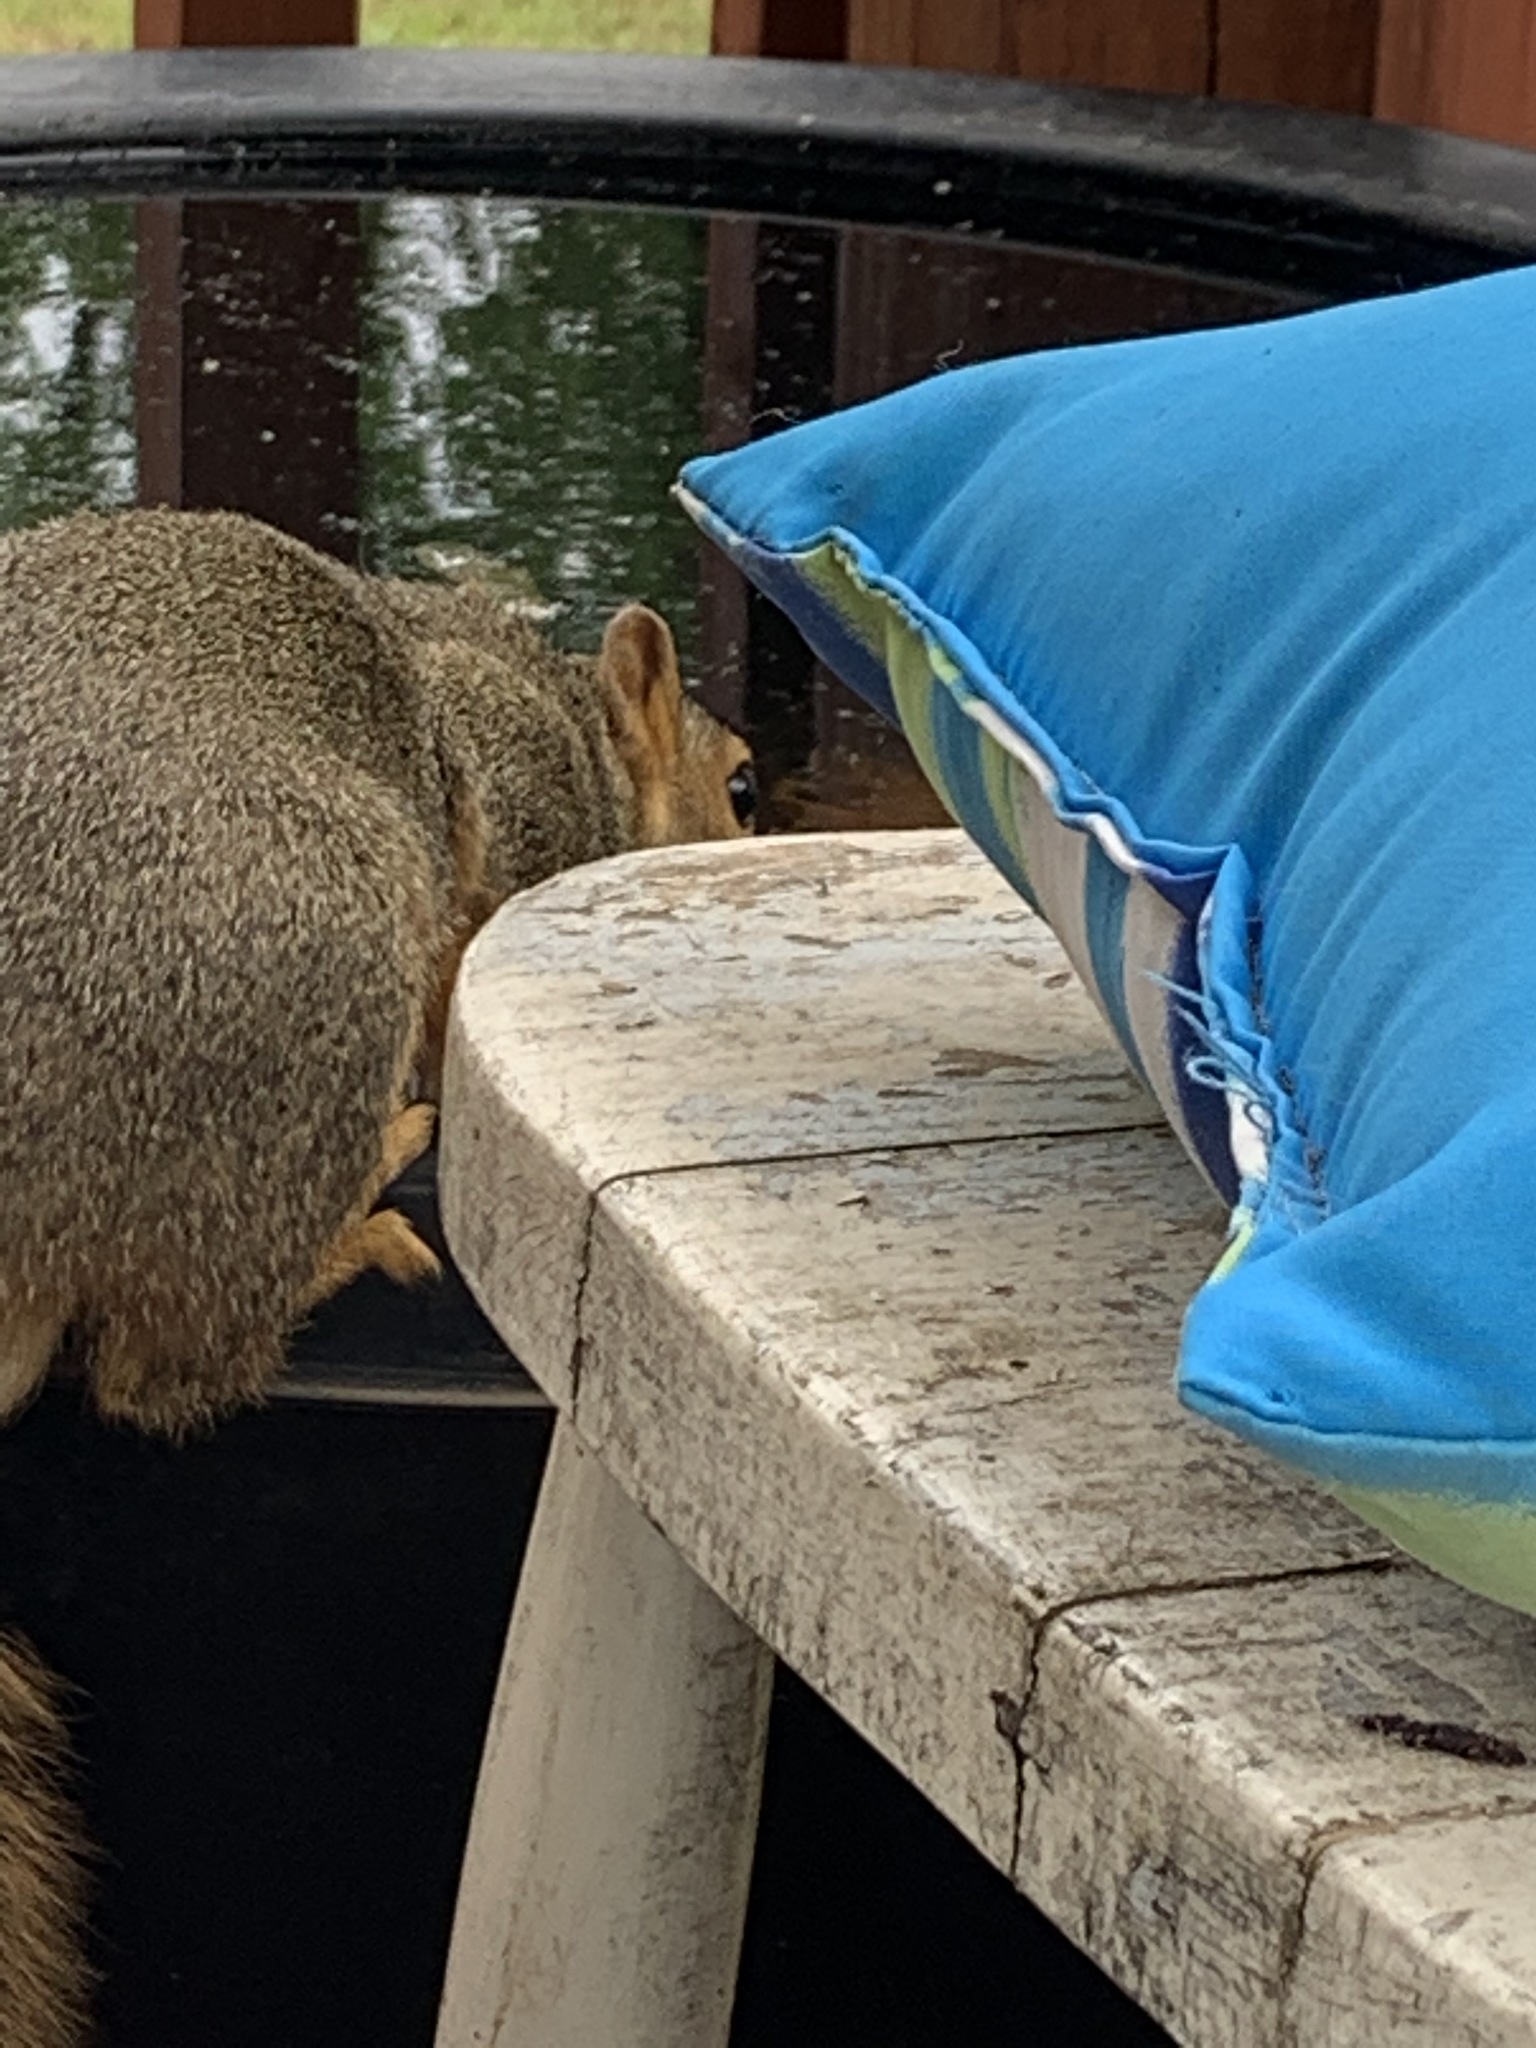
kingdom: Animalia
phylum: Chordata
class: Mammalia
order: Rodentia
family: Sciuridae
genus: Sciurus
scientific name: Sciurus niger
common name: Fox squirrel
